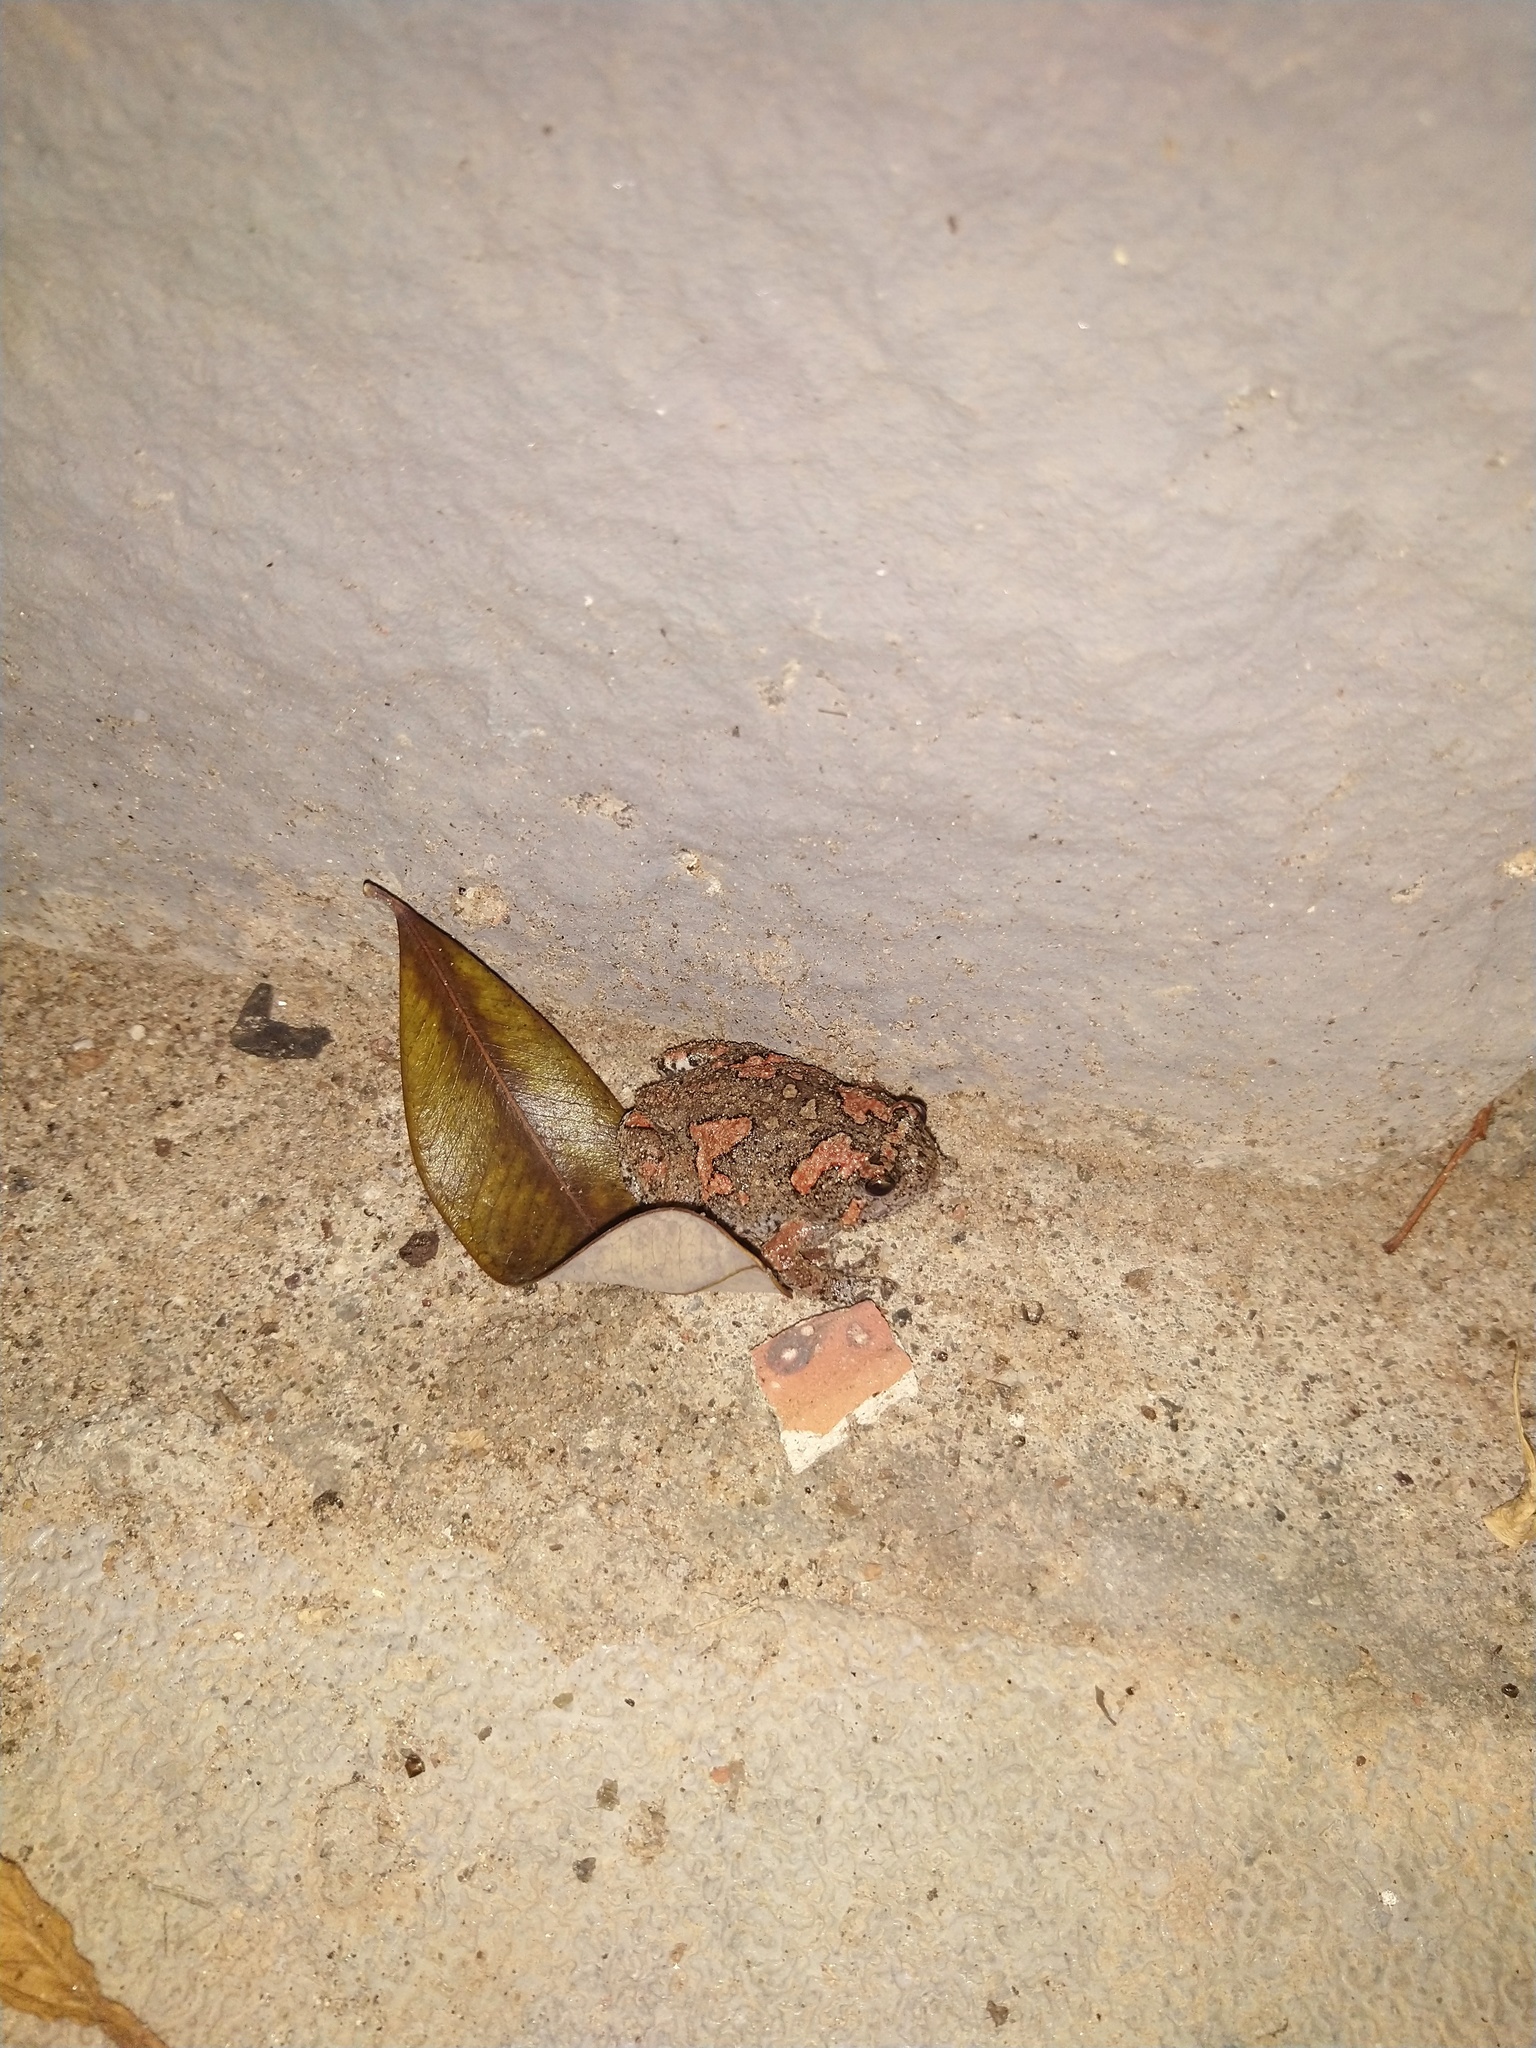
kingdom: Animalia
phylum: Chordata
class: Amphibia
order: Anura
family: Microhylidae
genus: Uperodon
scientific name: Uperodon taprobanicus
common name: Ceylon kaloula
